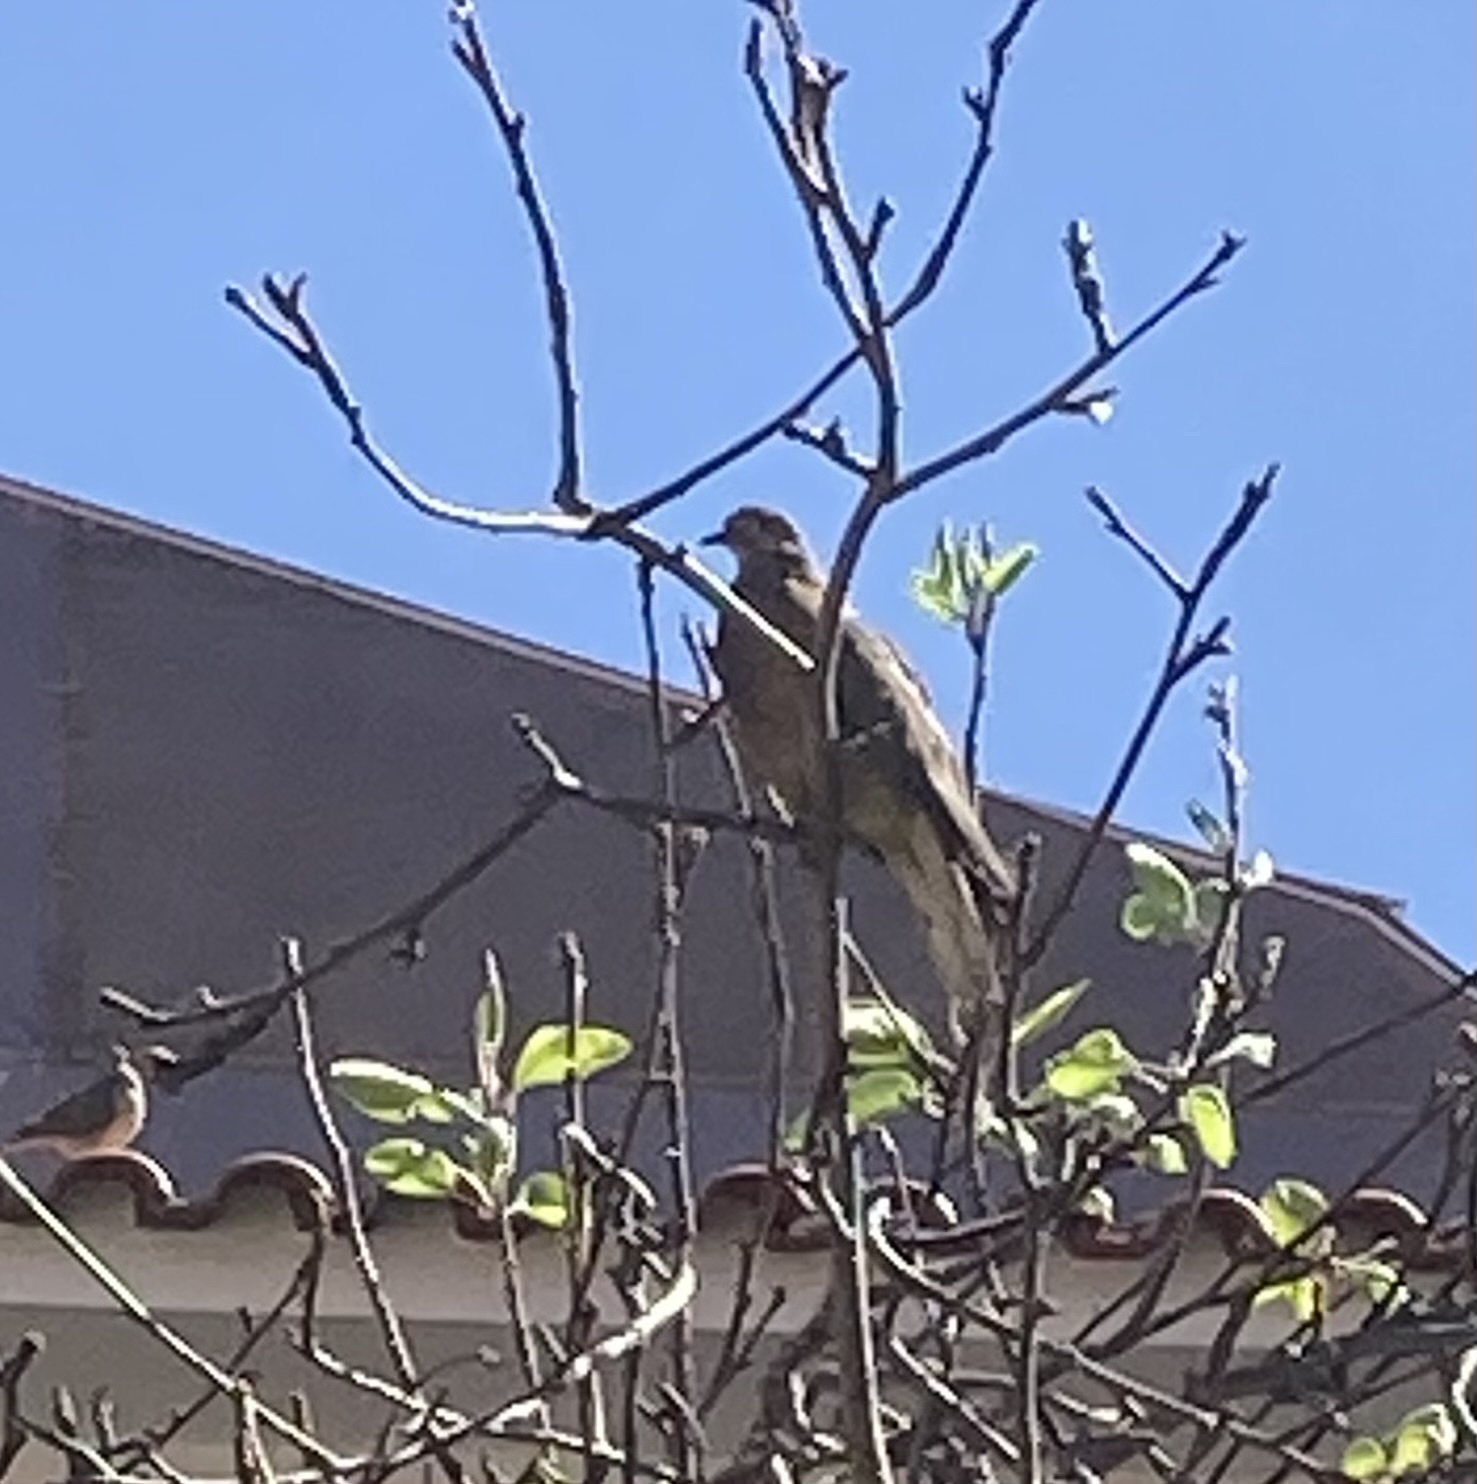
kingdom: Animalia
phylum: Chordata
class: Aves
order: Columbiformes
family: Columbidae
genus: Zenaida
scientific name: Zenaida auriculata
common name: Eared dove
